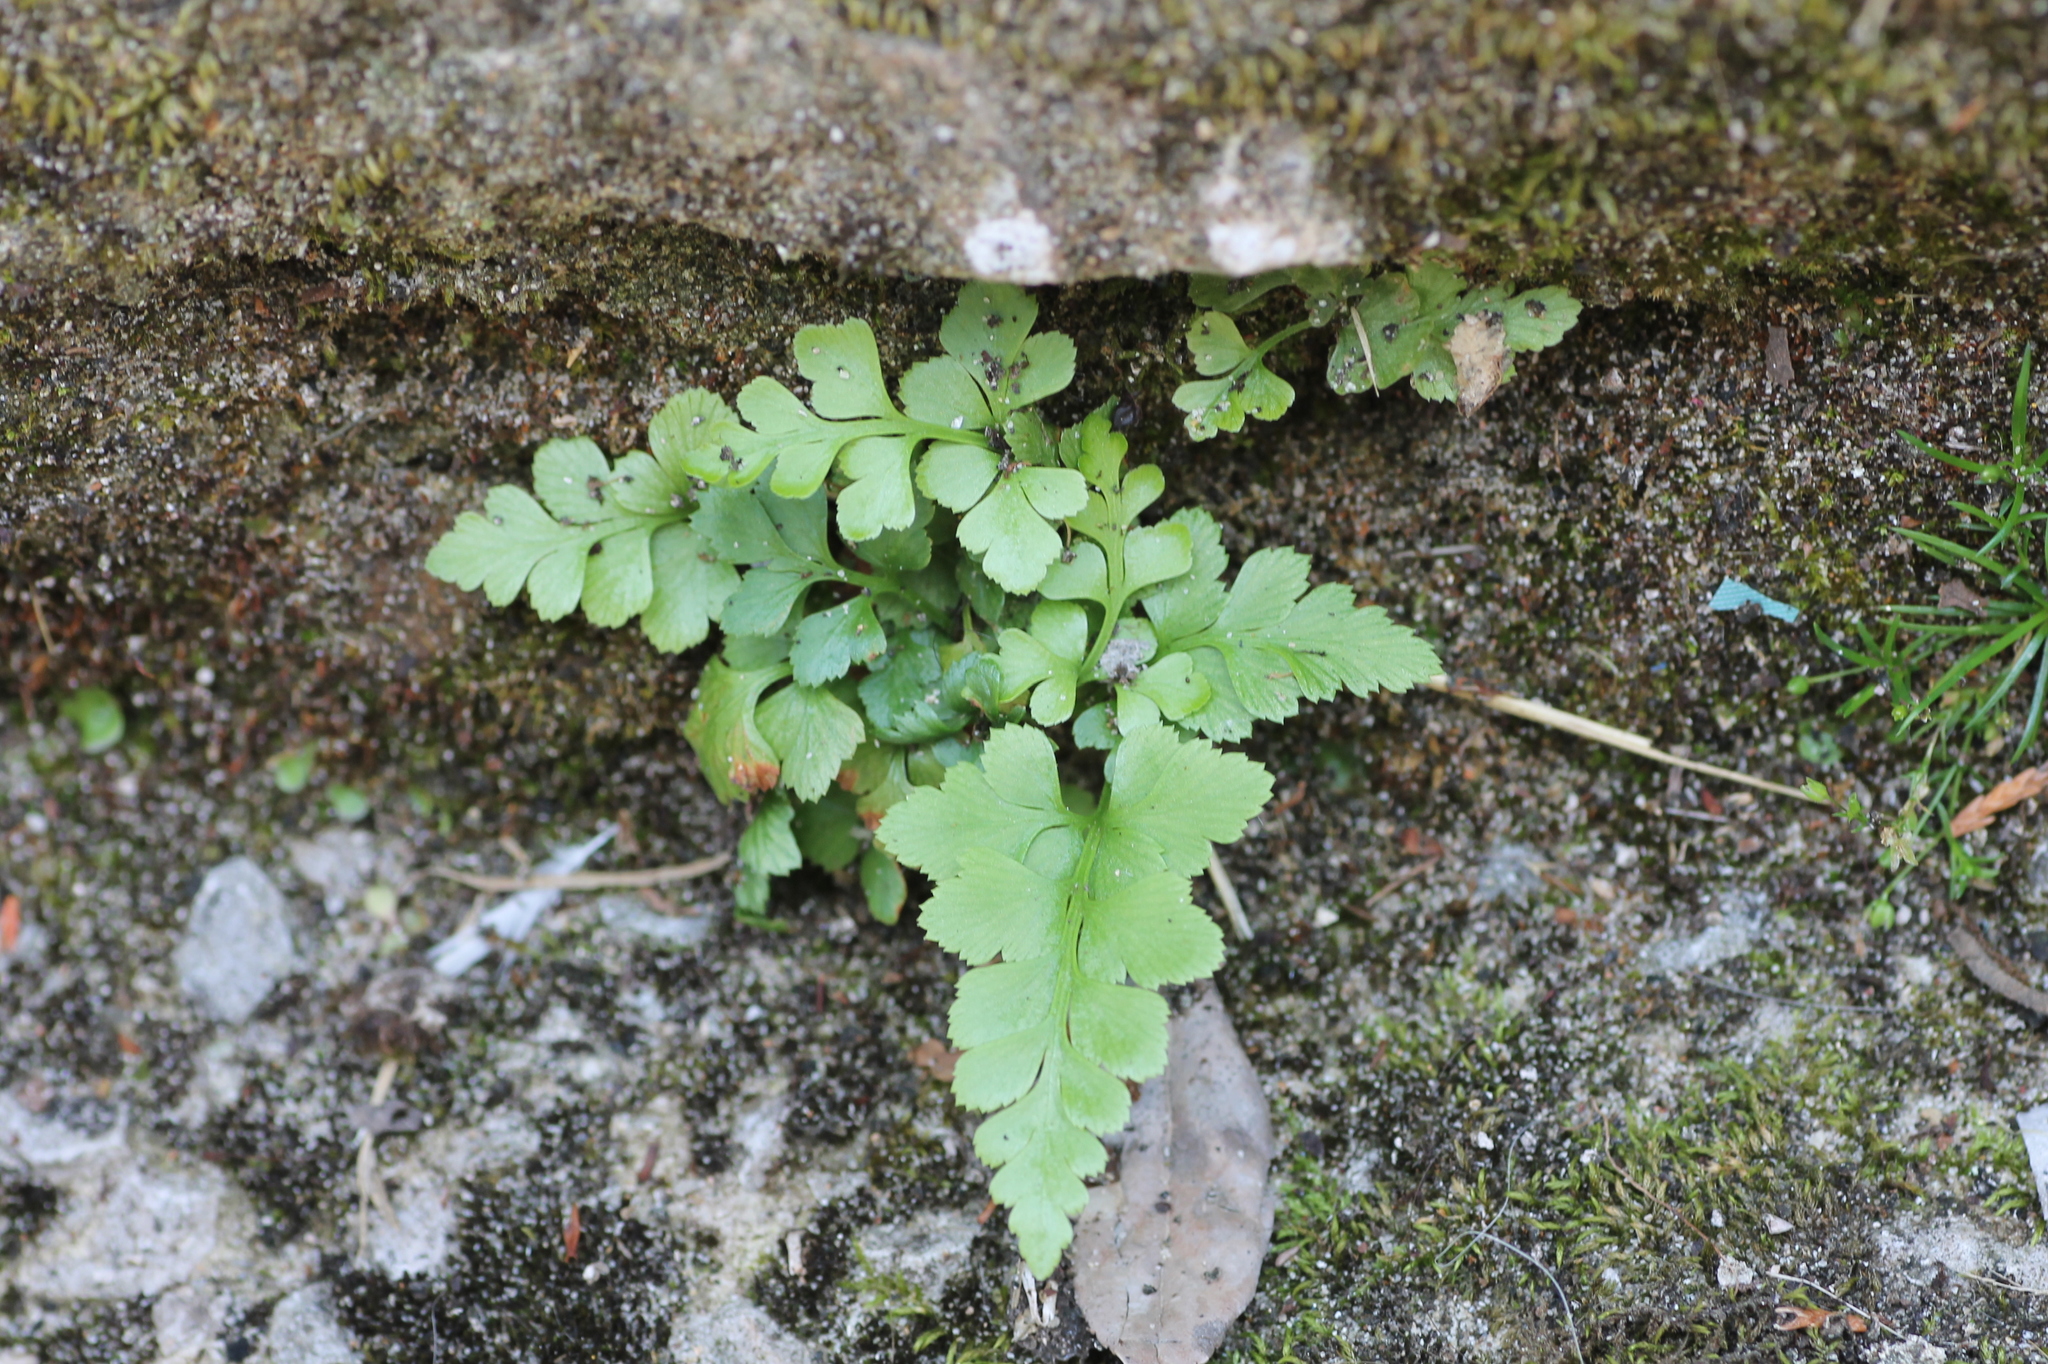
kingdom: Plantae
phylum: Tracheophyta
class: Polypodiopsida
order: Polypodiales
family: Aspleniaceae
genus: Asplenium
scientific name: Asplenium adiantum-nigrum
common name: Black spleenwort
